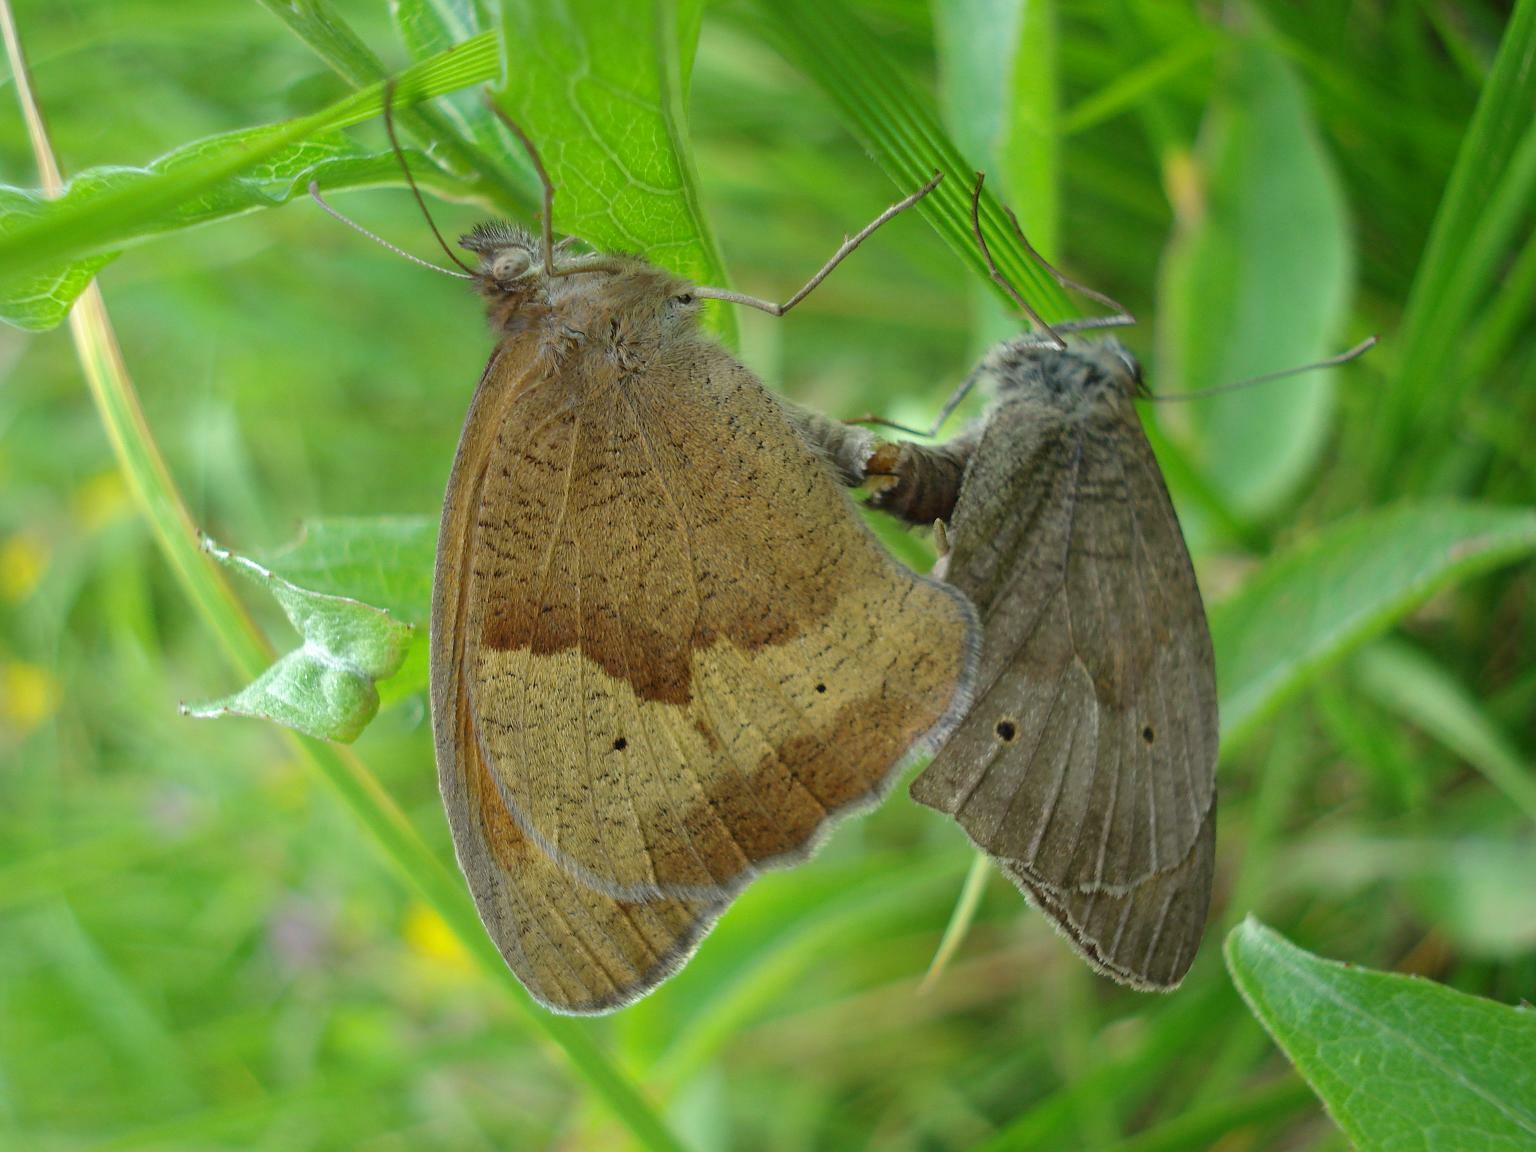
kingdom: Animalia
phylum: Arthropoda
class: Insecta
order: Lepidoptera
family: Nymphalidae
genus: Maniola
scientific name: Maniola jurtina
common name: Meadow brown
